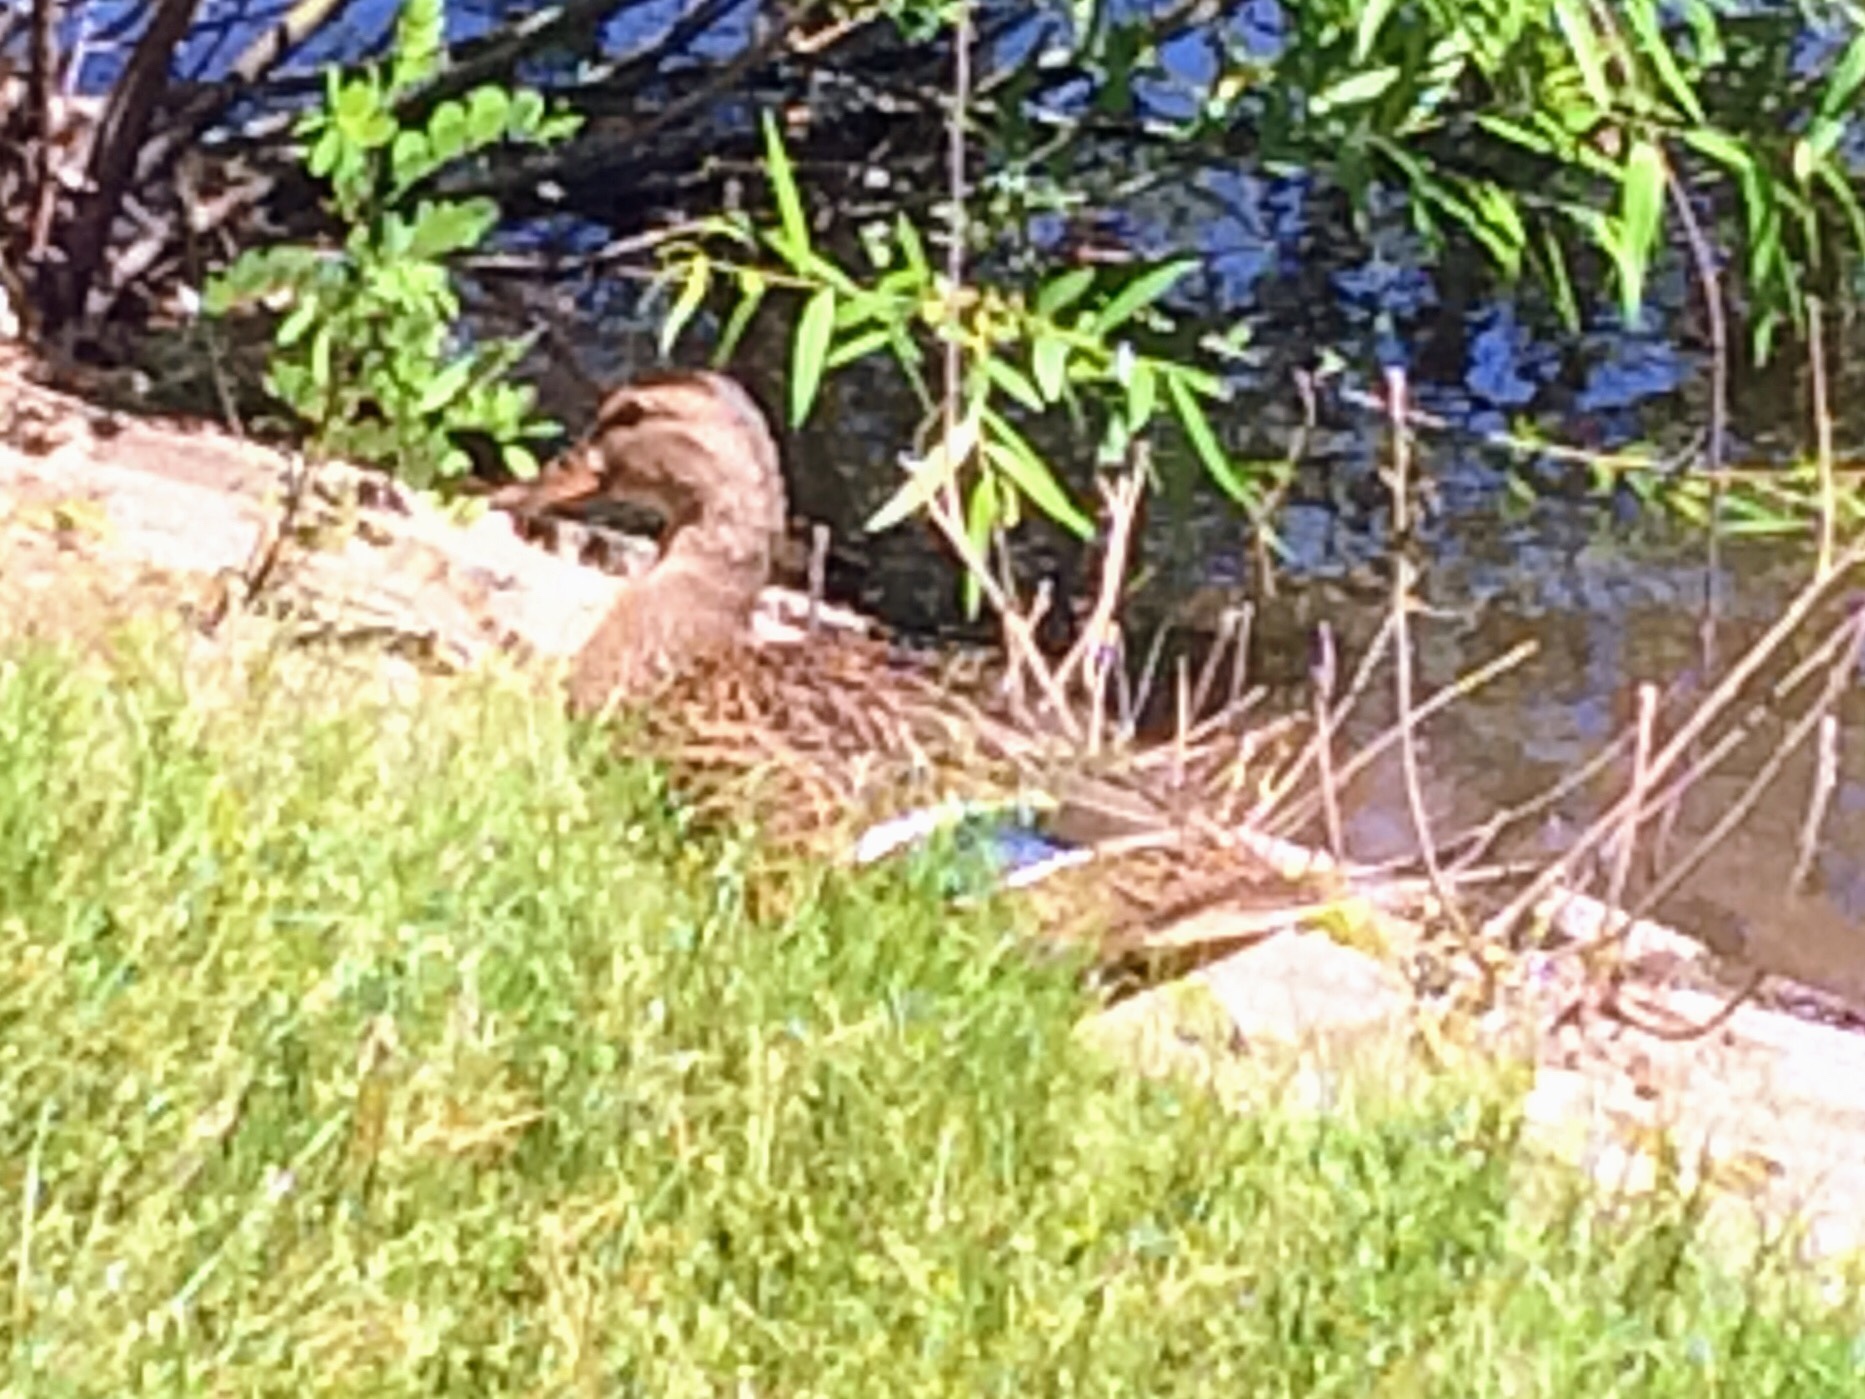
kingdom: Animalia
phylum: Chordata
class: Aves
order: Anseriformes
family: Anatidae
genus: Anas
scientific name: Anas platyrhynchos
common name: Mallard
